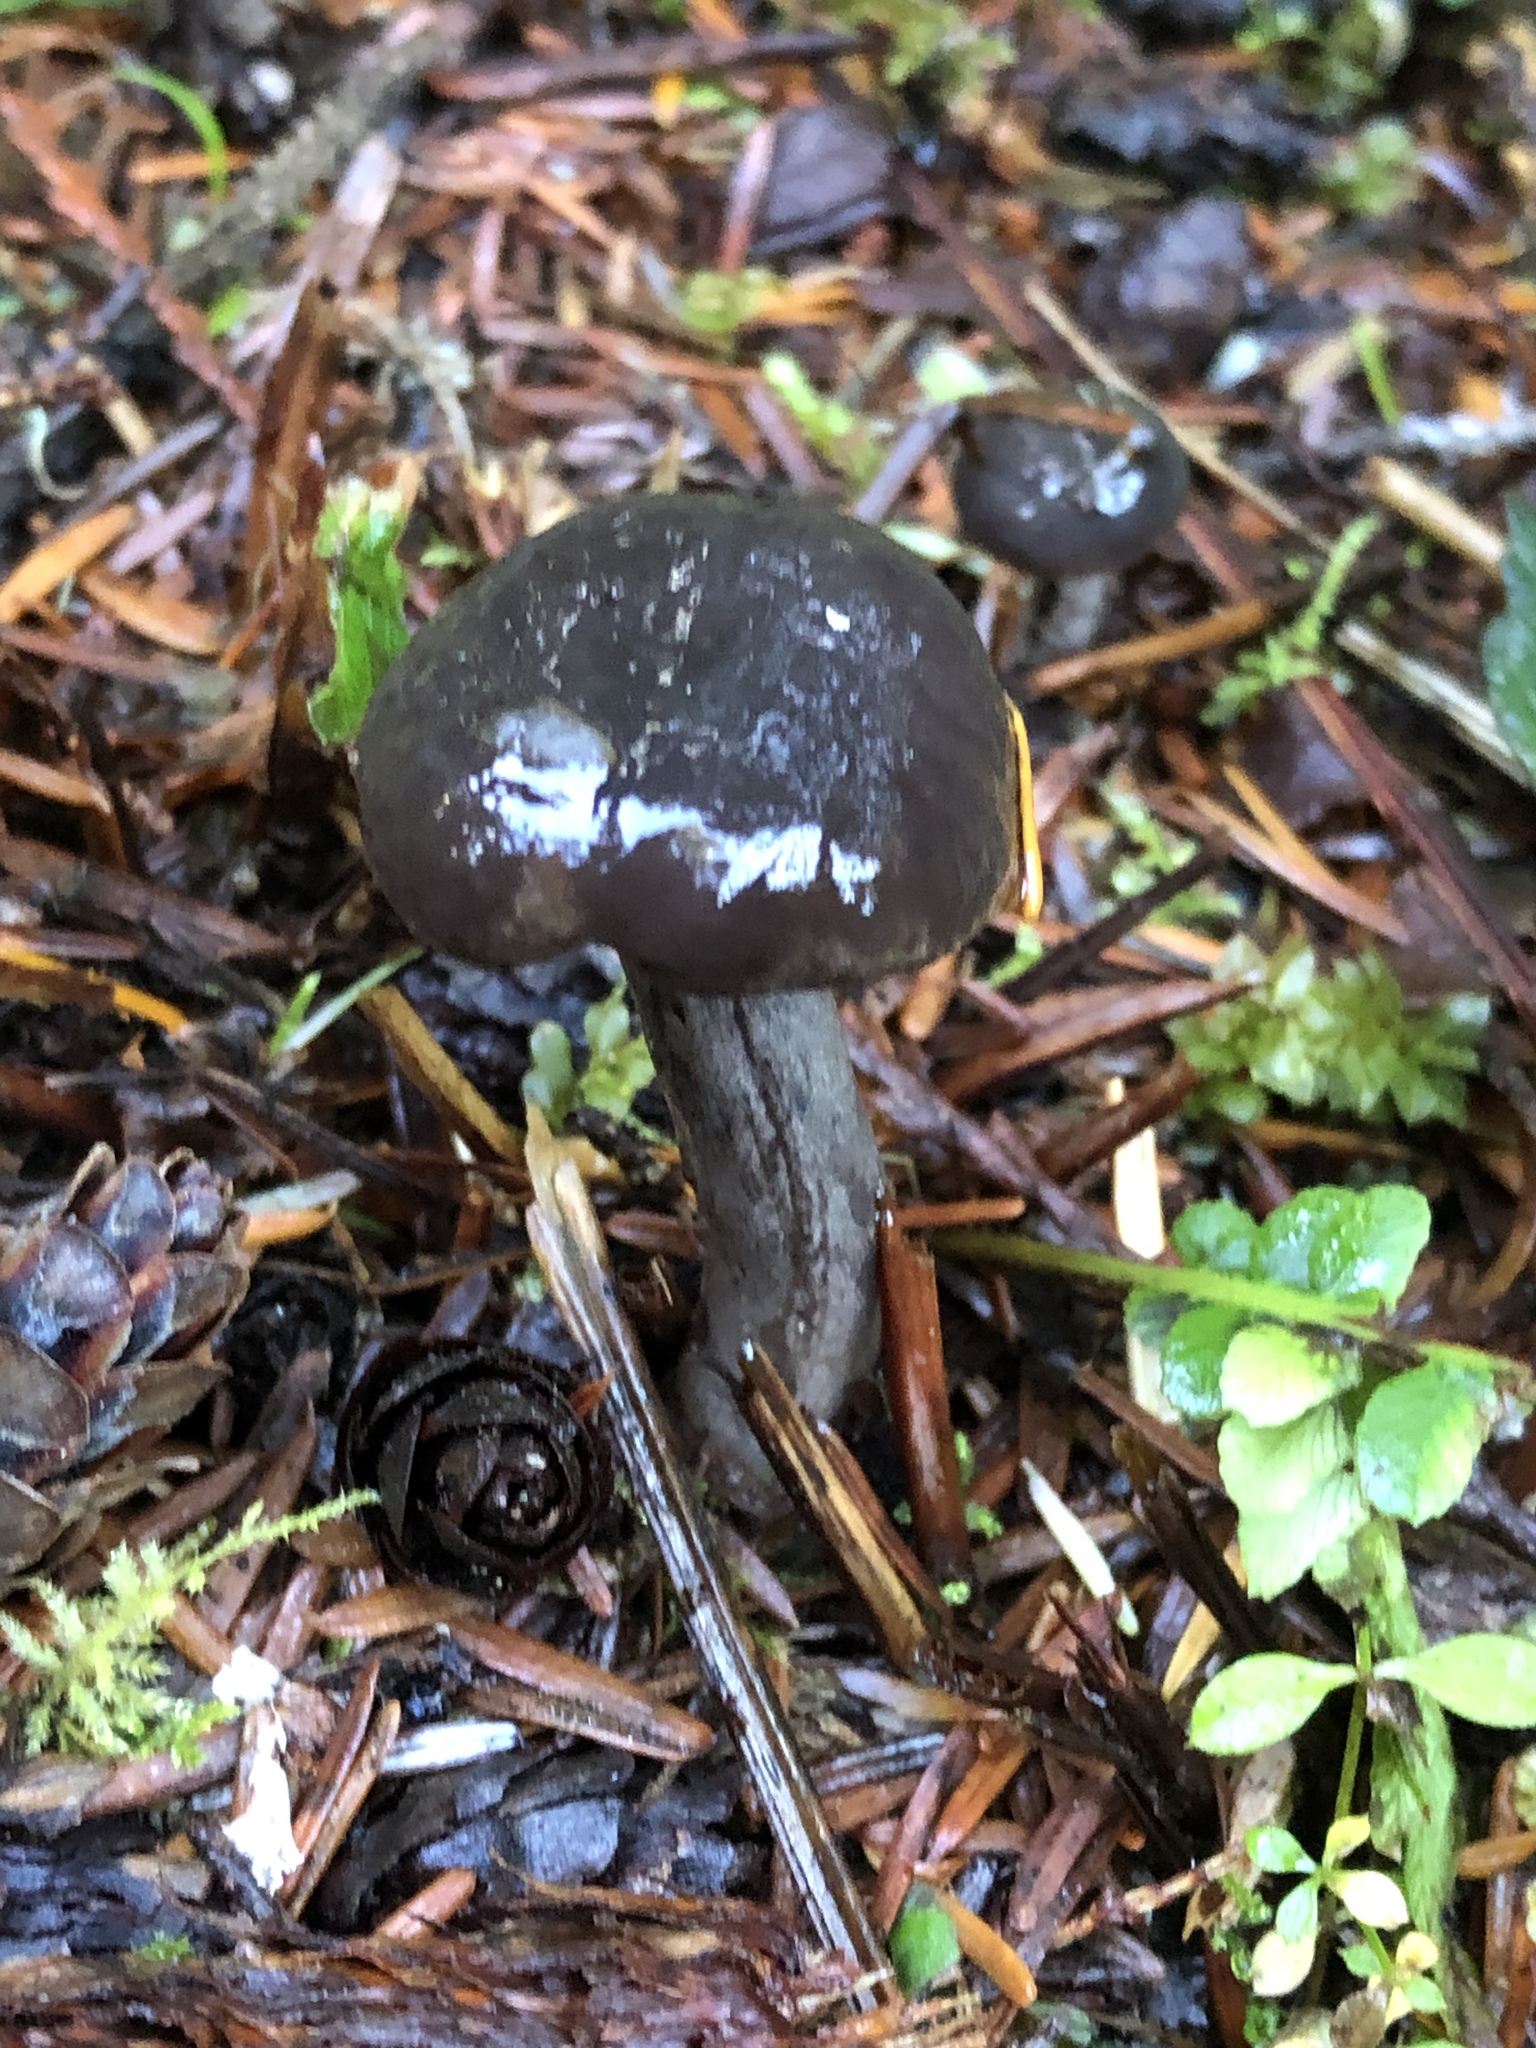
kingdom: Fungi
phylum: Basidiomycota
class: Agaricomycetes
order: Russulales
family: Russulaceae
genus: Lactarius
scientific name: Lactarius pseudomucidus
